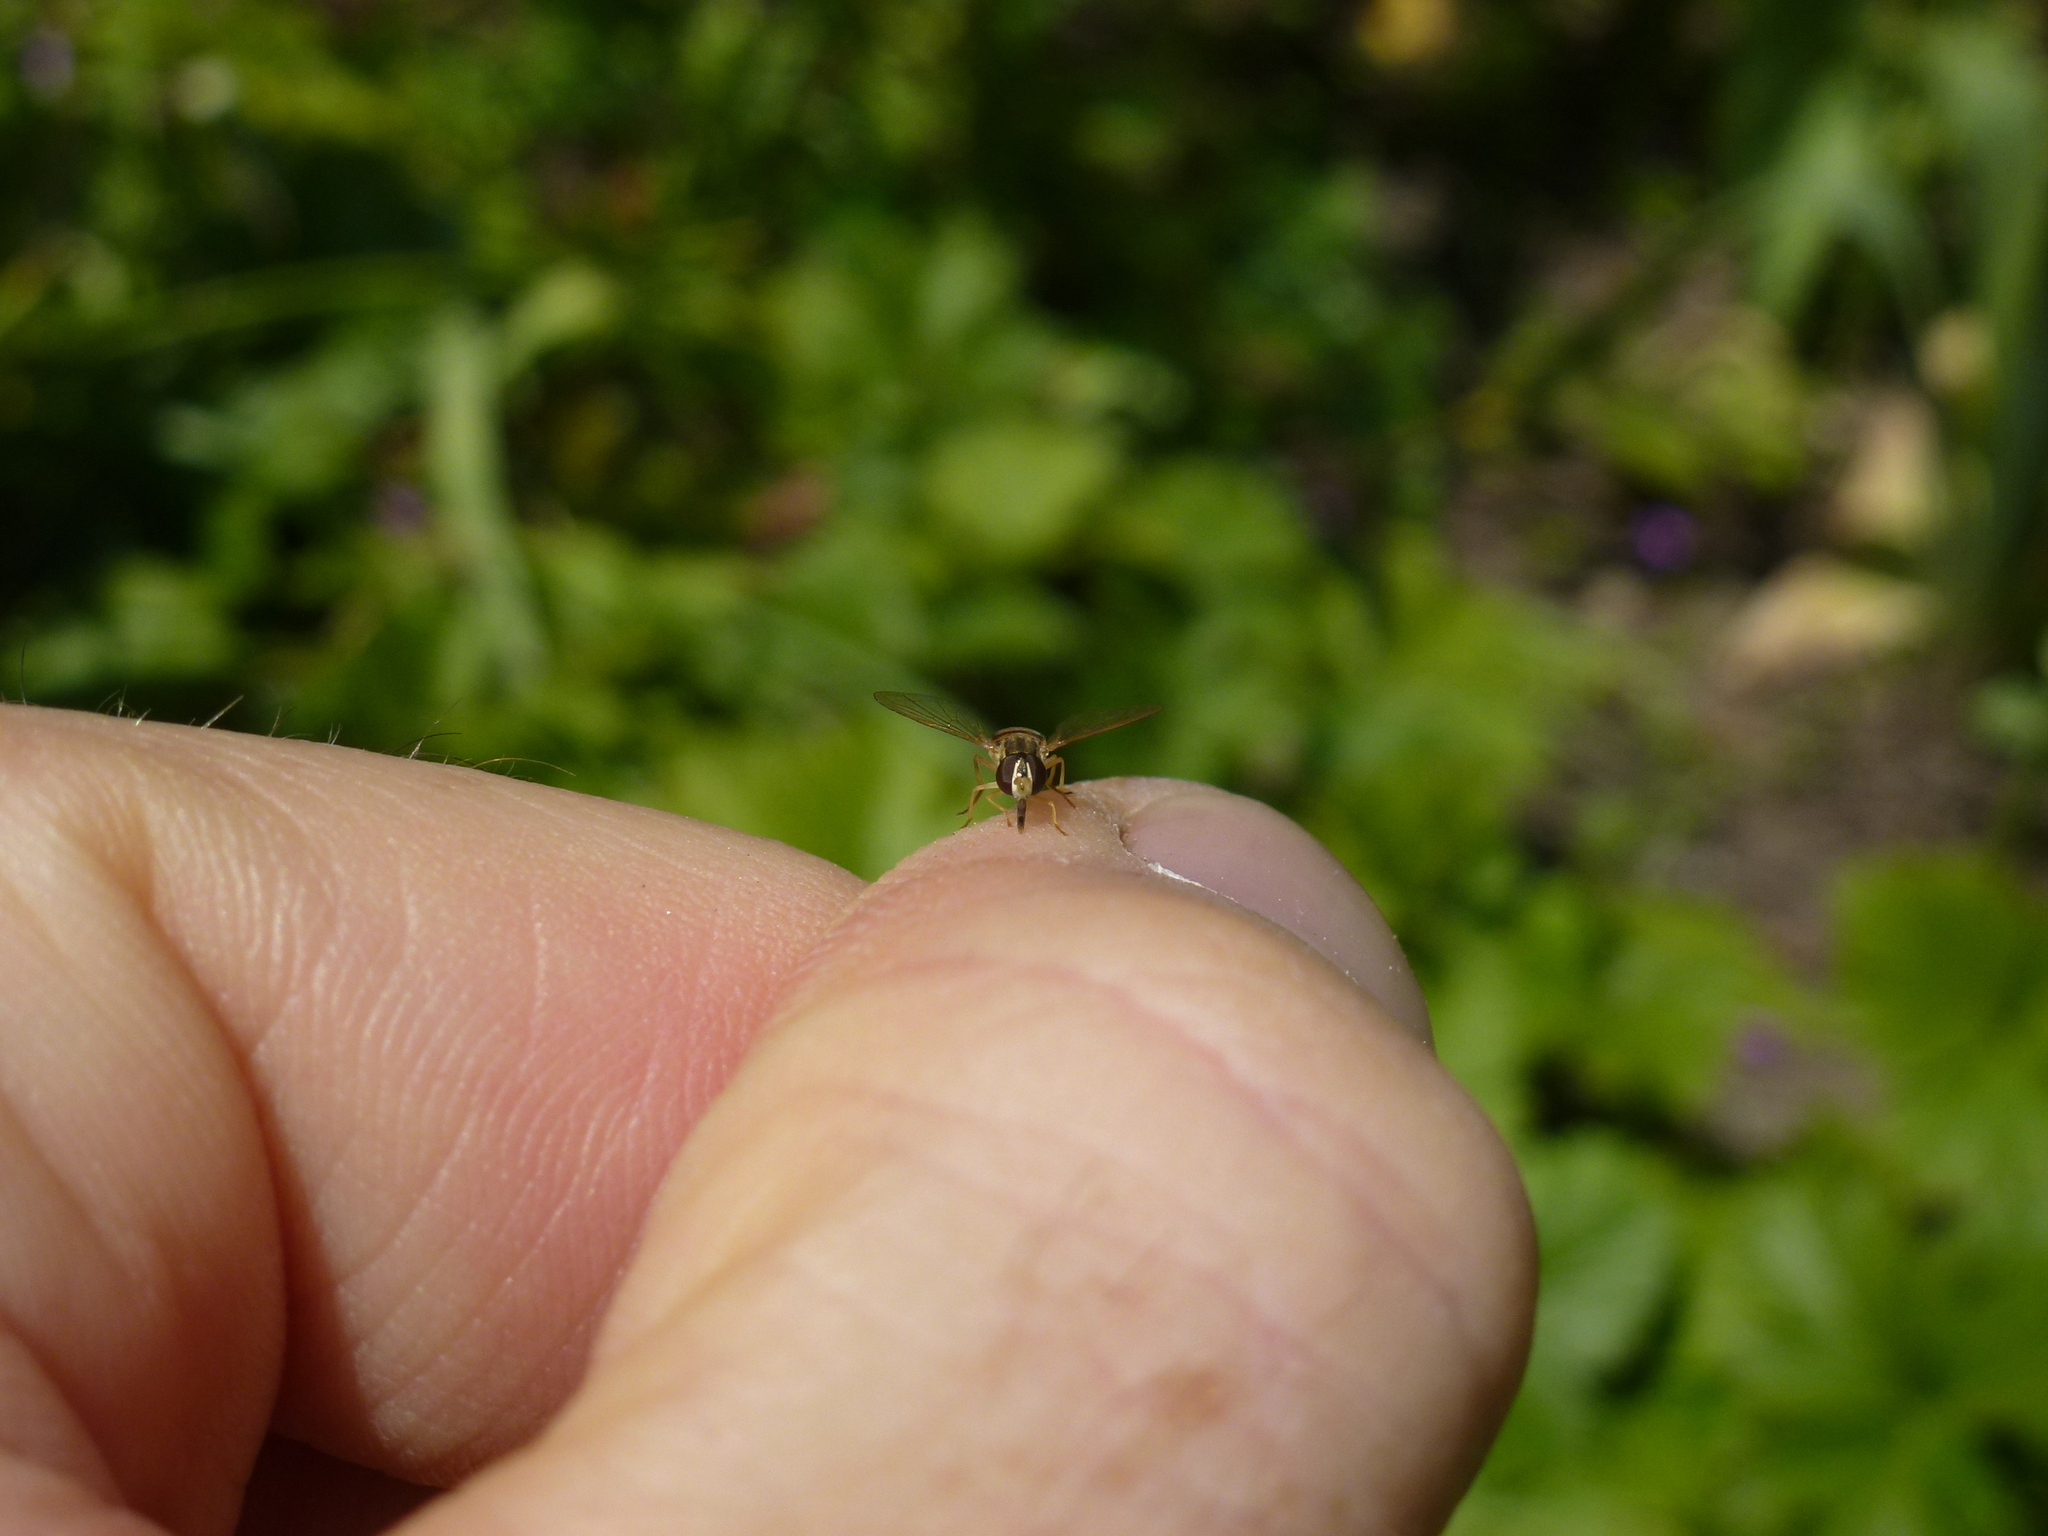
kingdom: Animalia
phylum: Arthropoda
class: Insecta
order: Diptera
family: Syrphidae
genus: Toxomerus
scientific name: Toxomerus marginatus
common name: Syrphid fly
